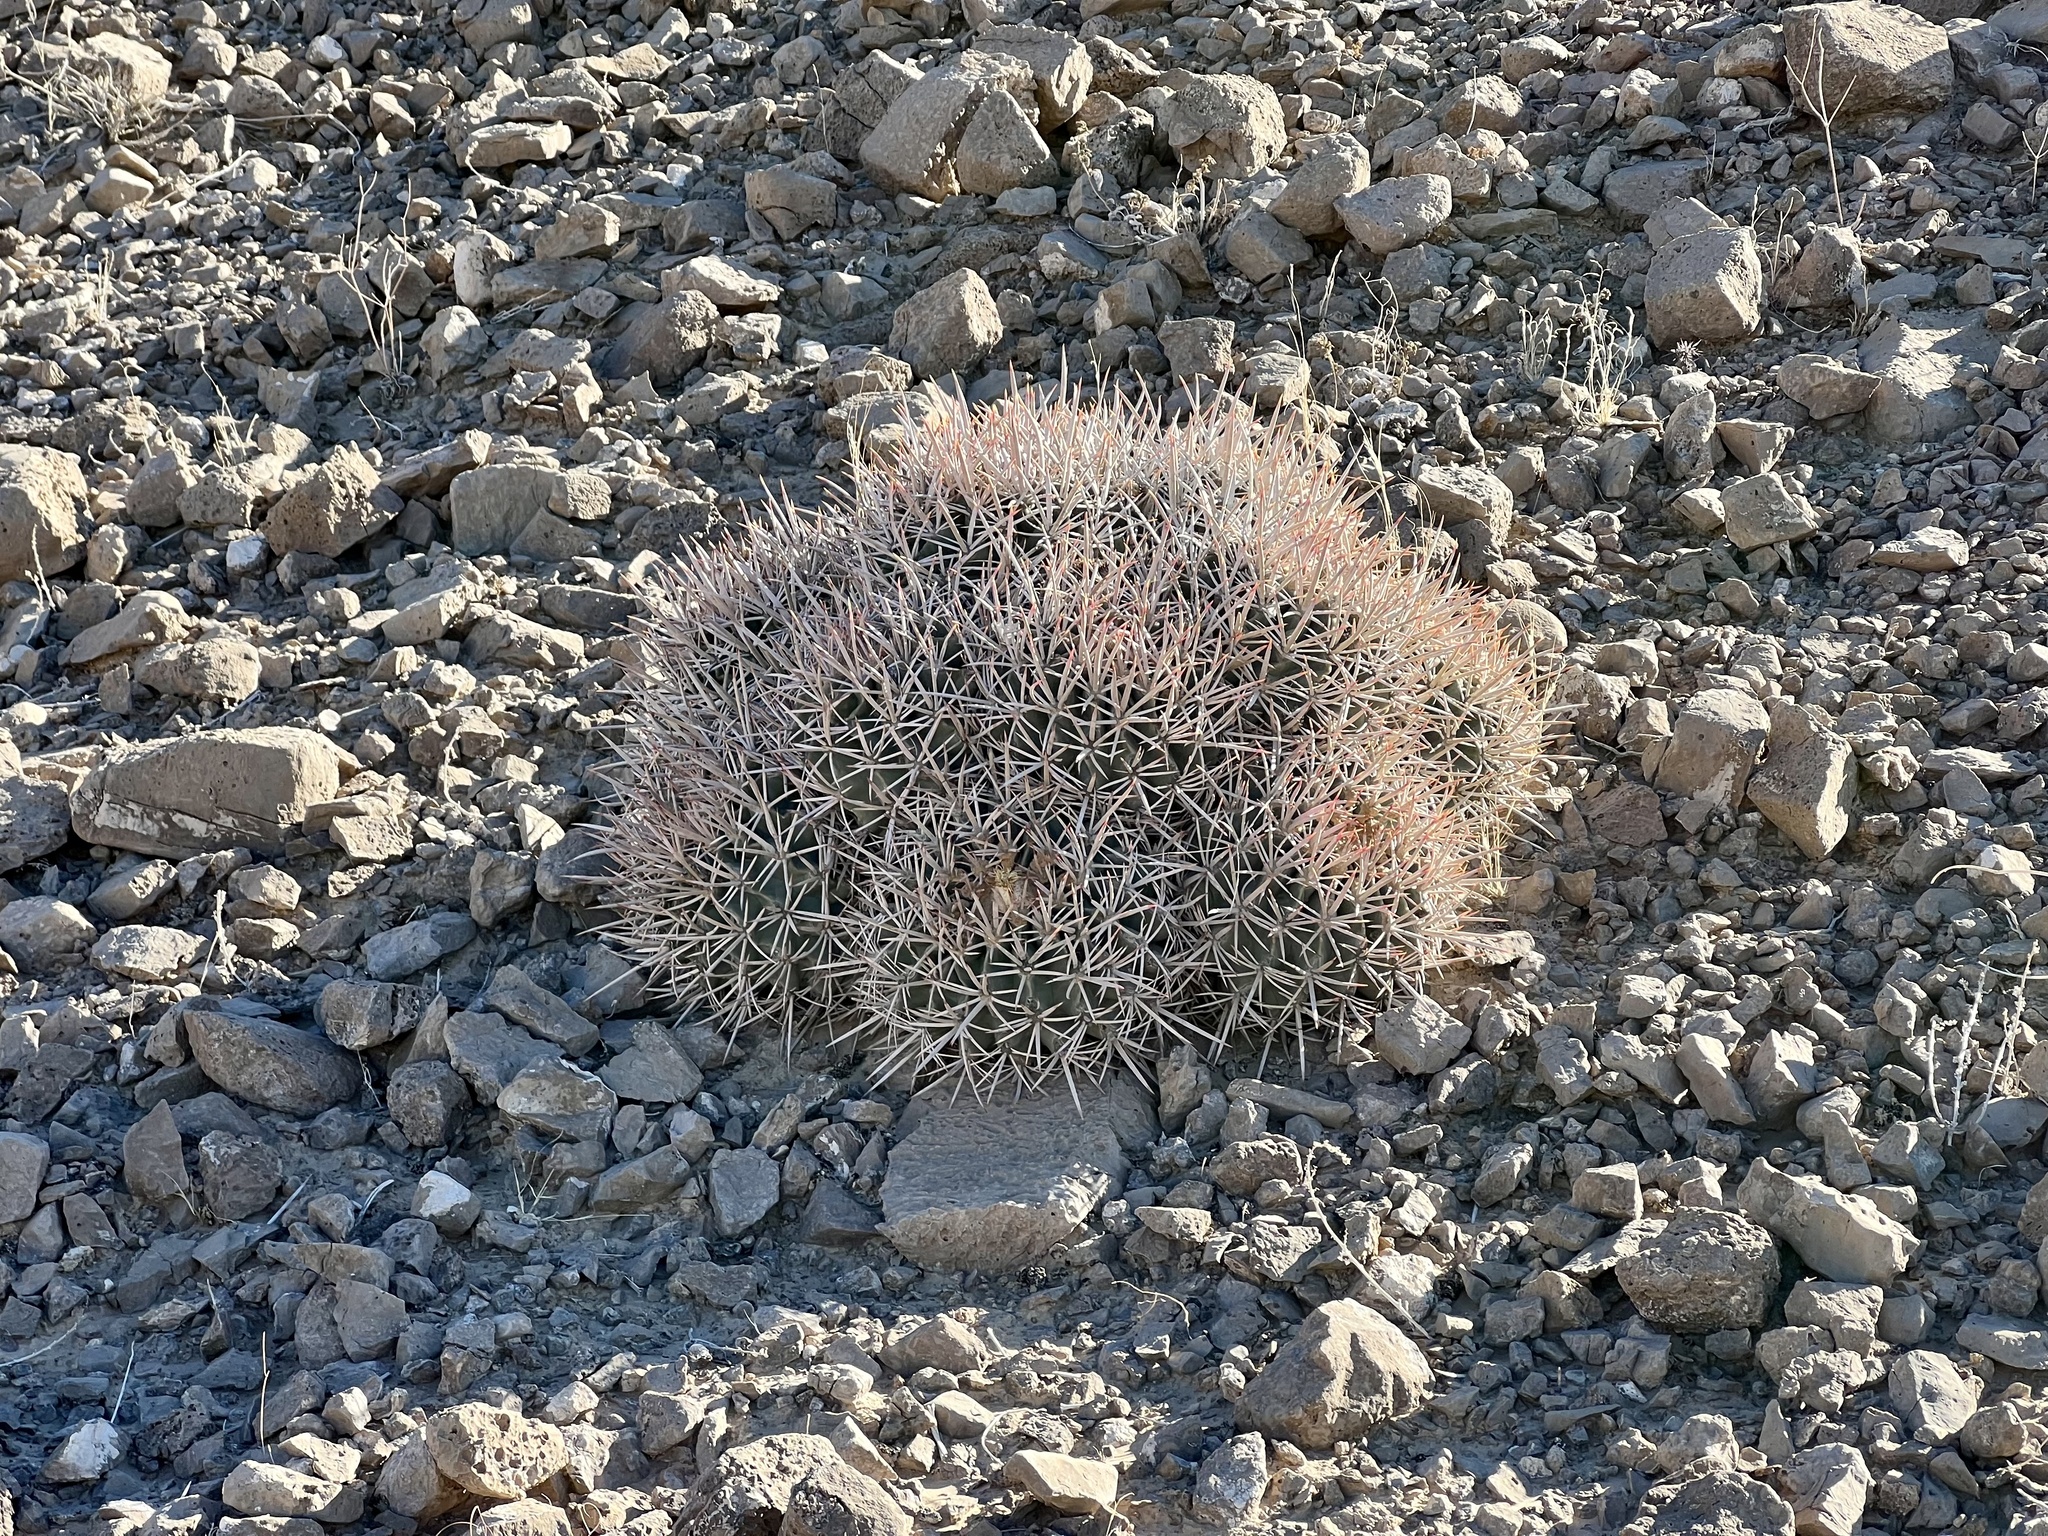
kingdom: Plantae
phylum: Tracheophyta
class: Magnoliopsida
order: Caryophyllales
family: Cactaceae
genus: Echinocactus
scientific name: Echinocactus polycephalus
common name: Cottontop cactus
